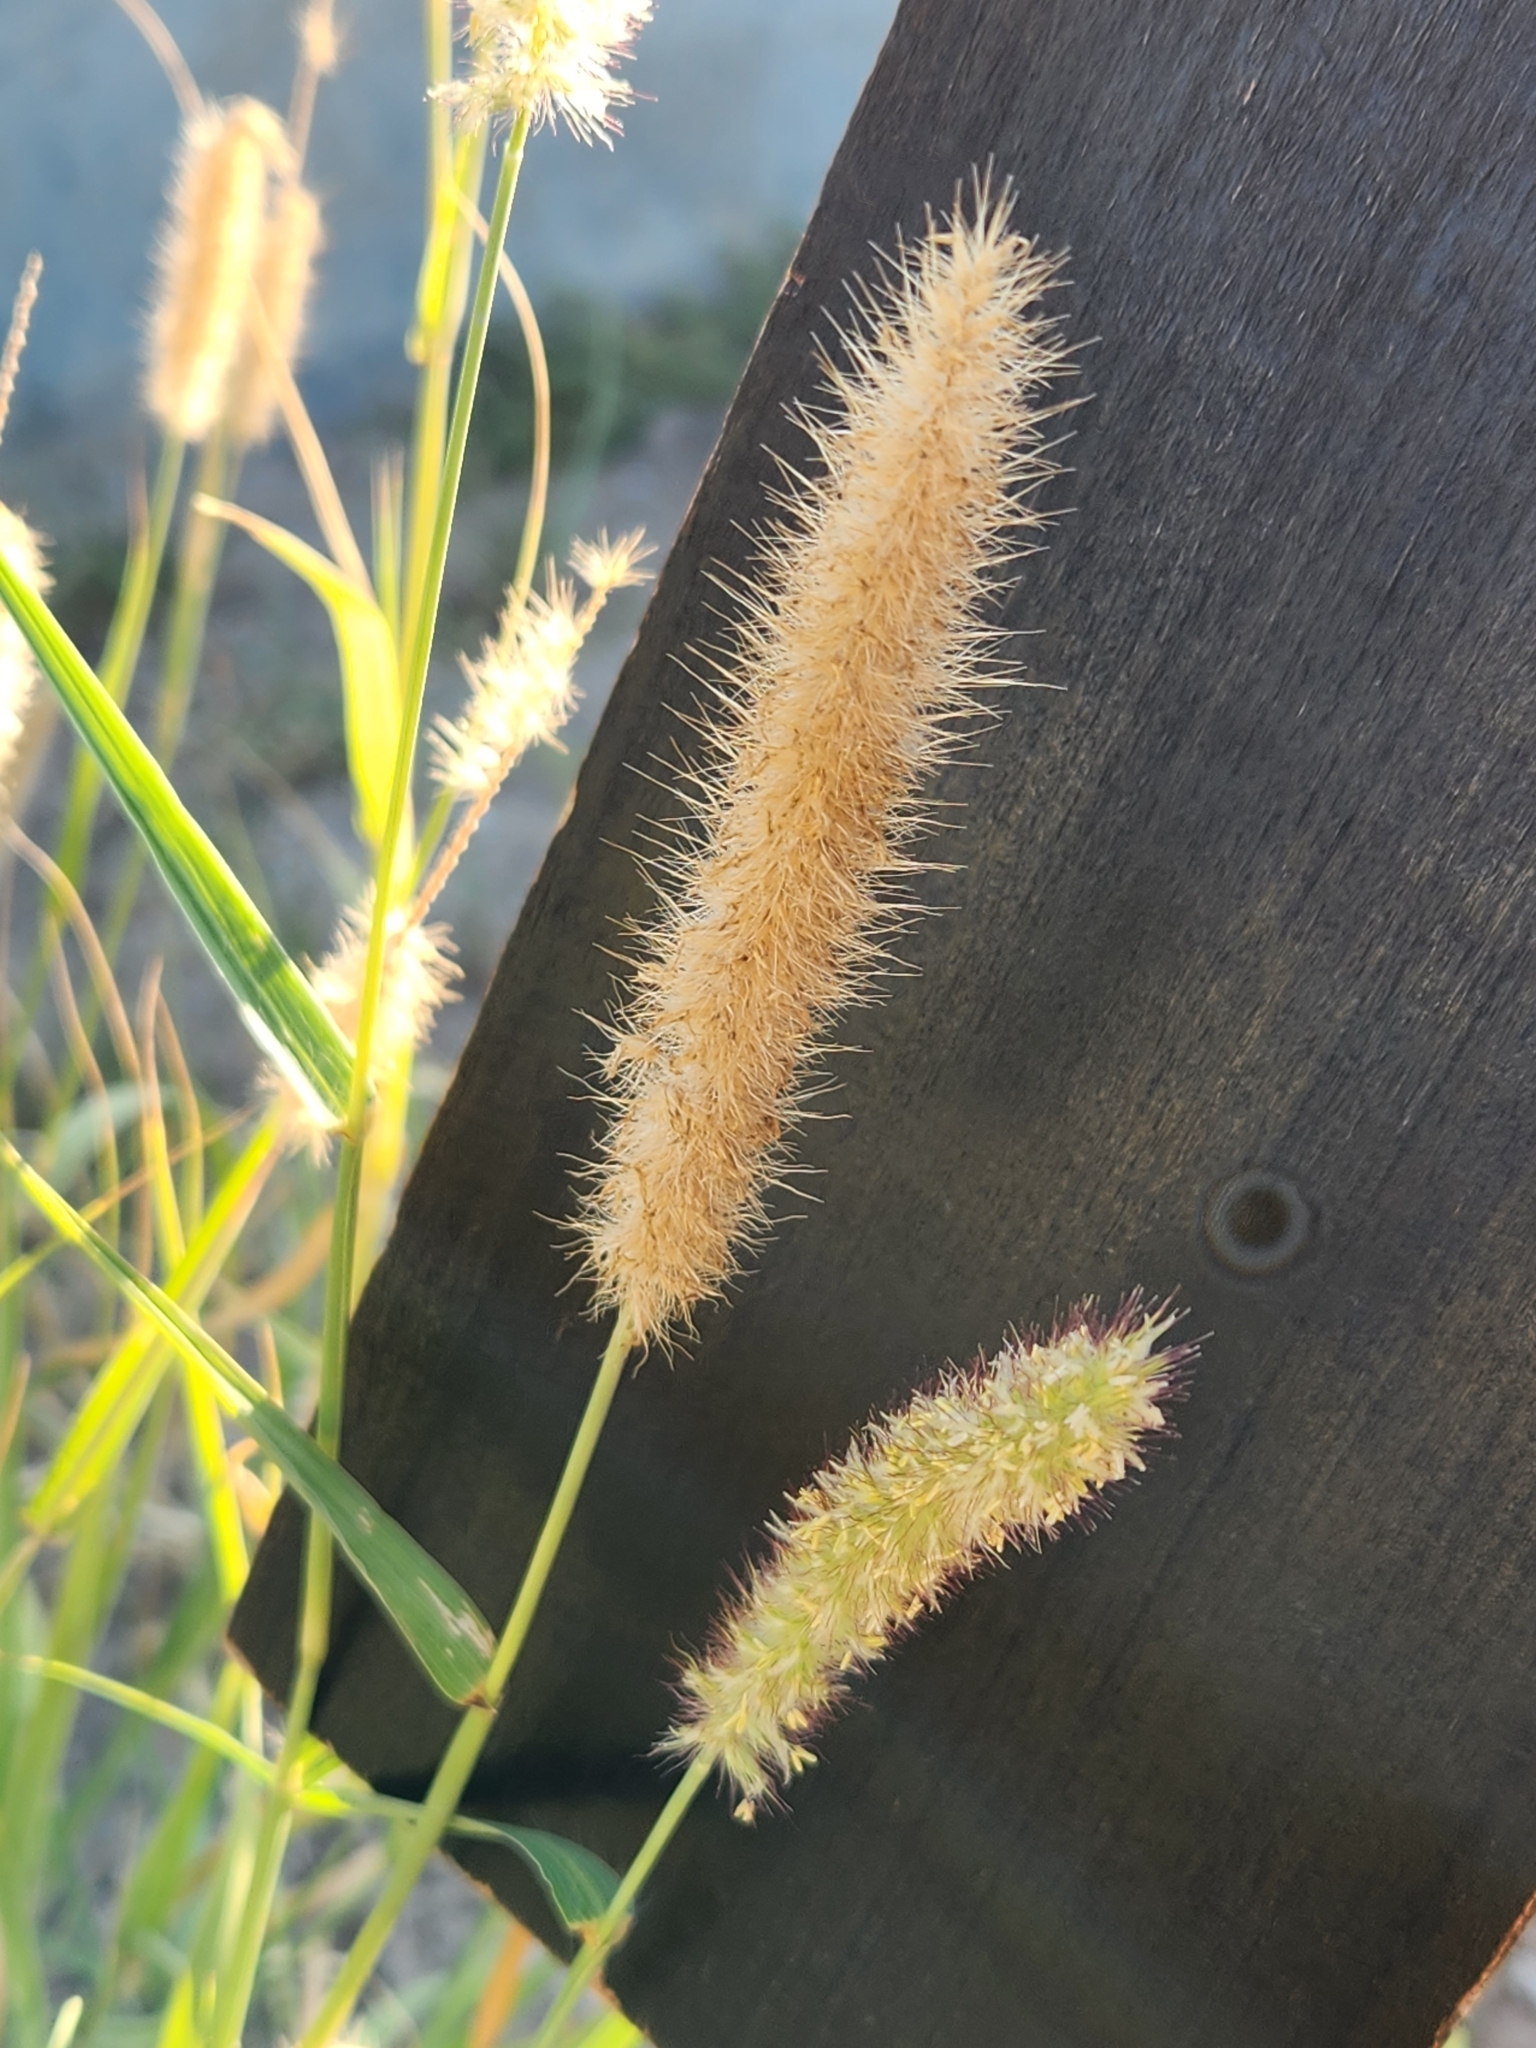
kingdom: Plantae
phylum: Tracheophyta
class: Liliopsida
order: Poales
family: Poaceae
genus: Cenchrus
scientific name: Cenchrus ciliaris
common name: Buffelgrass
